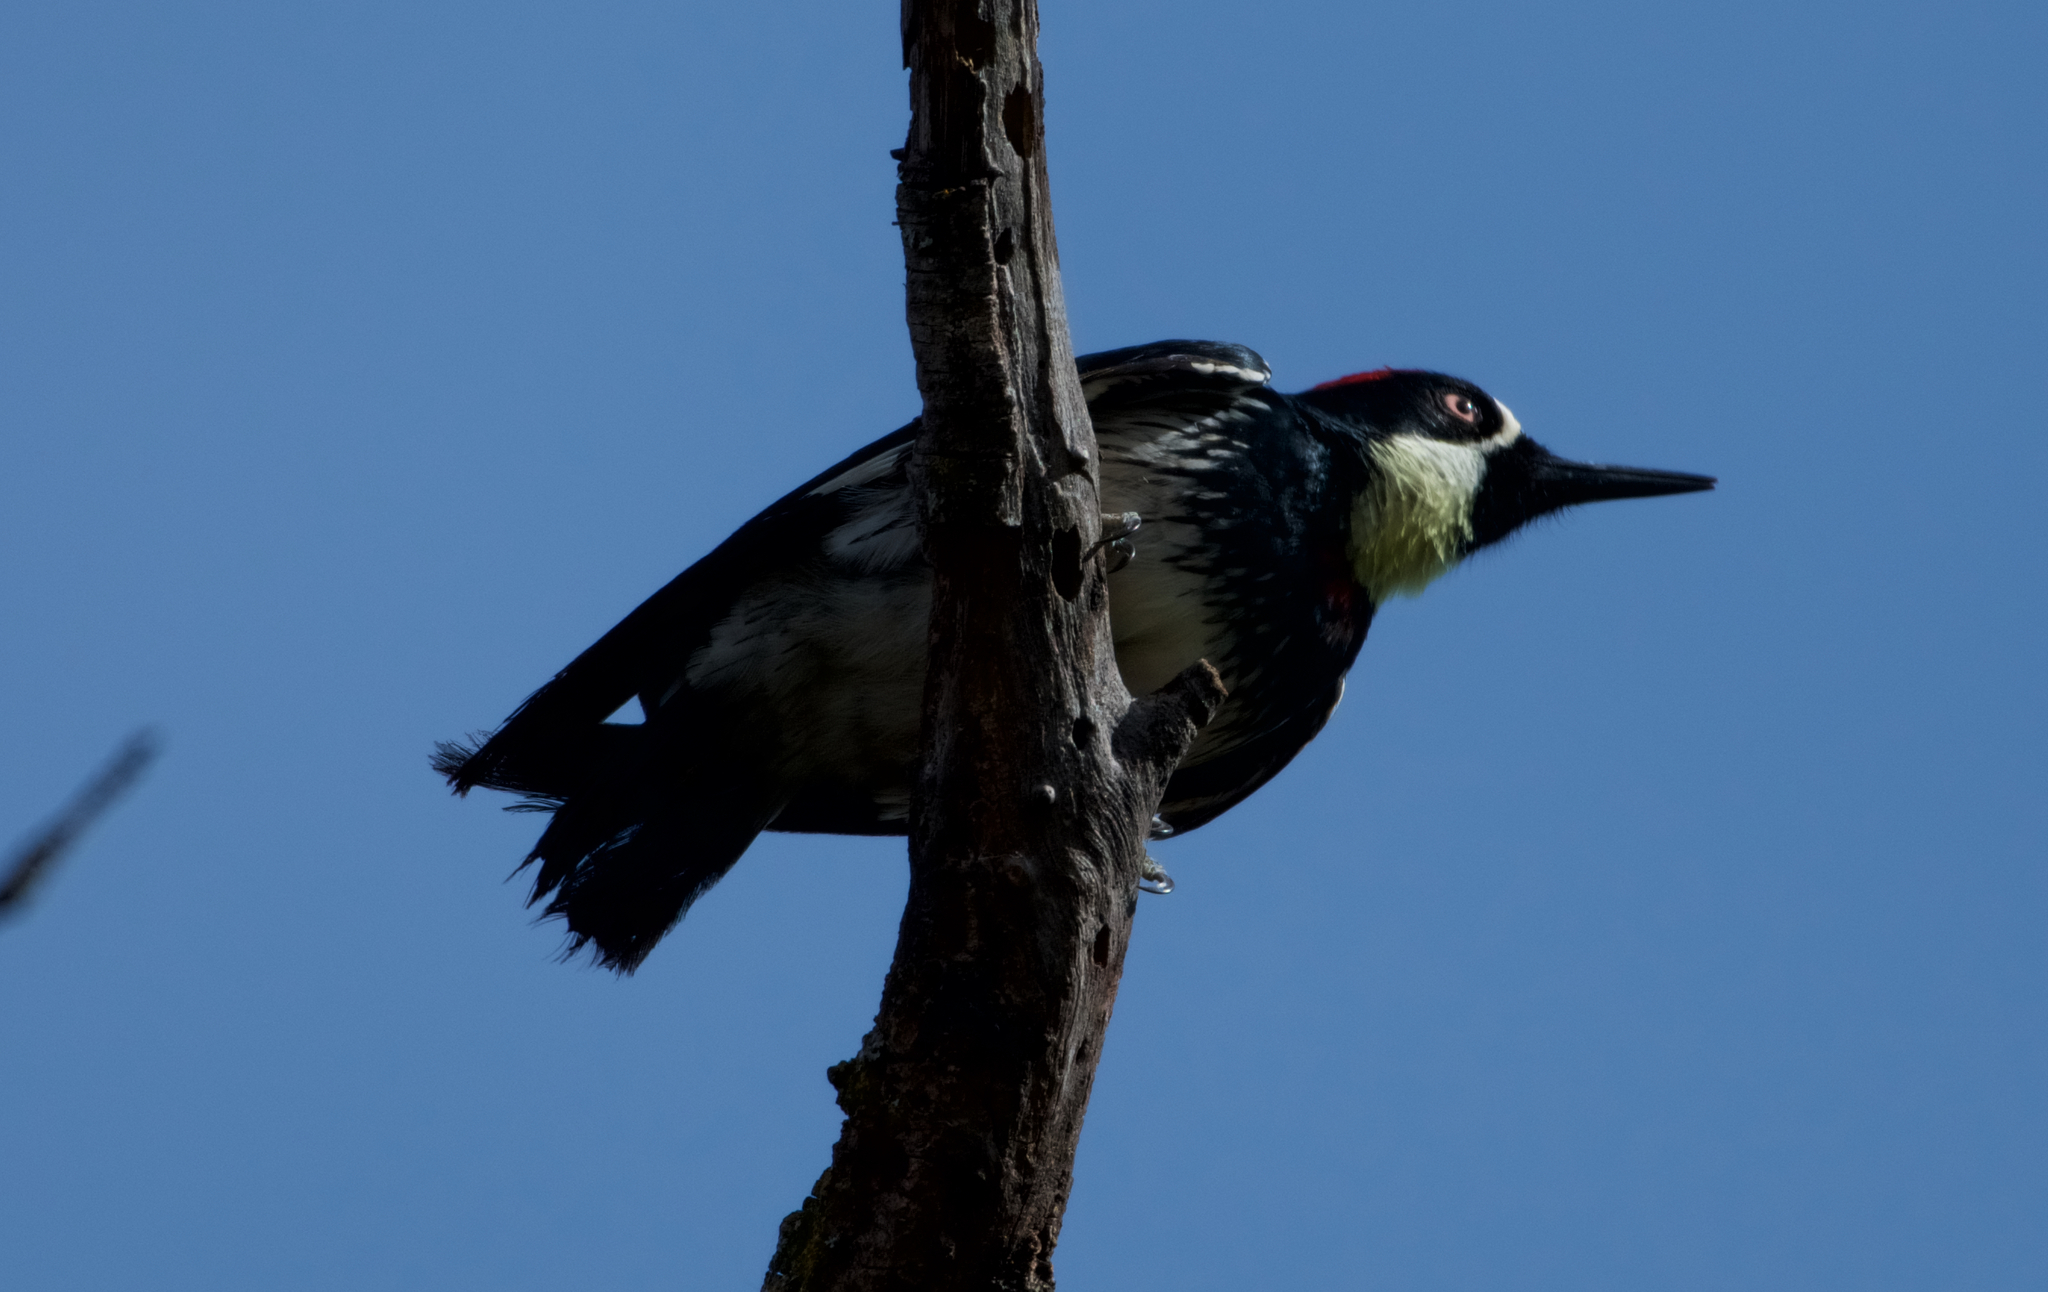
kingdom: Animalia
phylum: Chordata
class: Aves
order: Piciformes
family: Picidae
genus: Melanerpes
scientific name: Melanerpes formicivorus
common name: Acorn woodpecker
